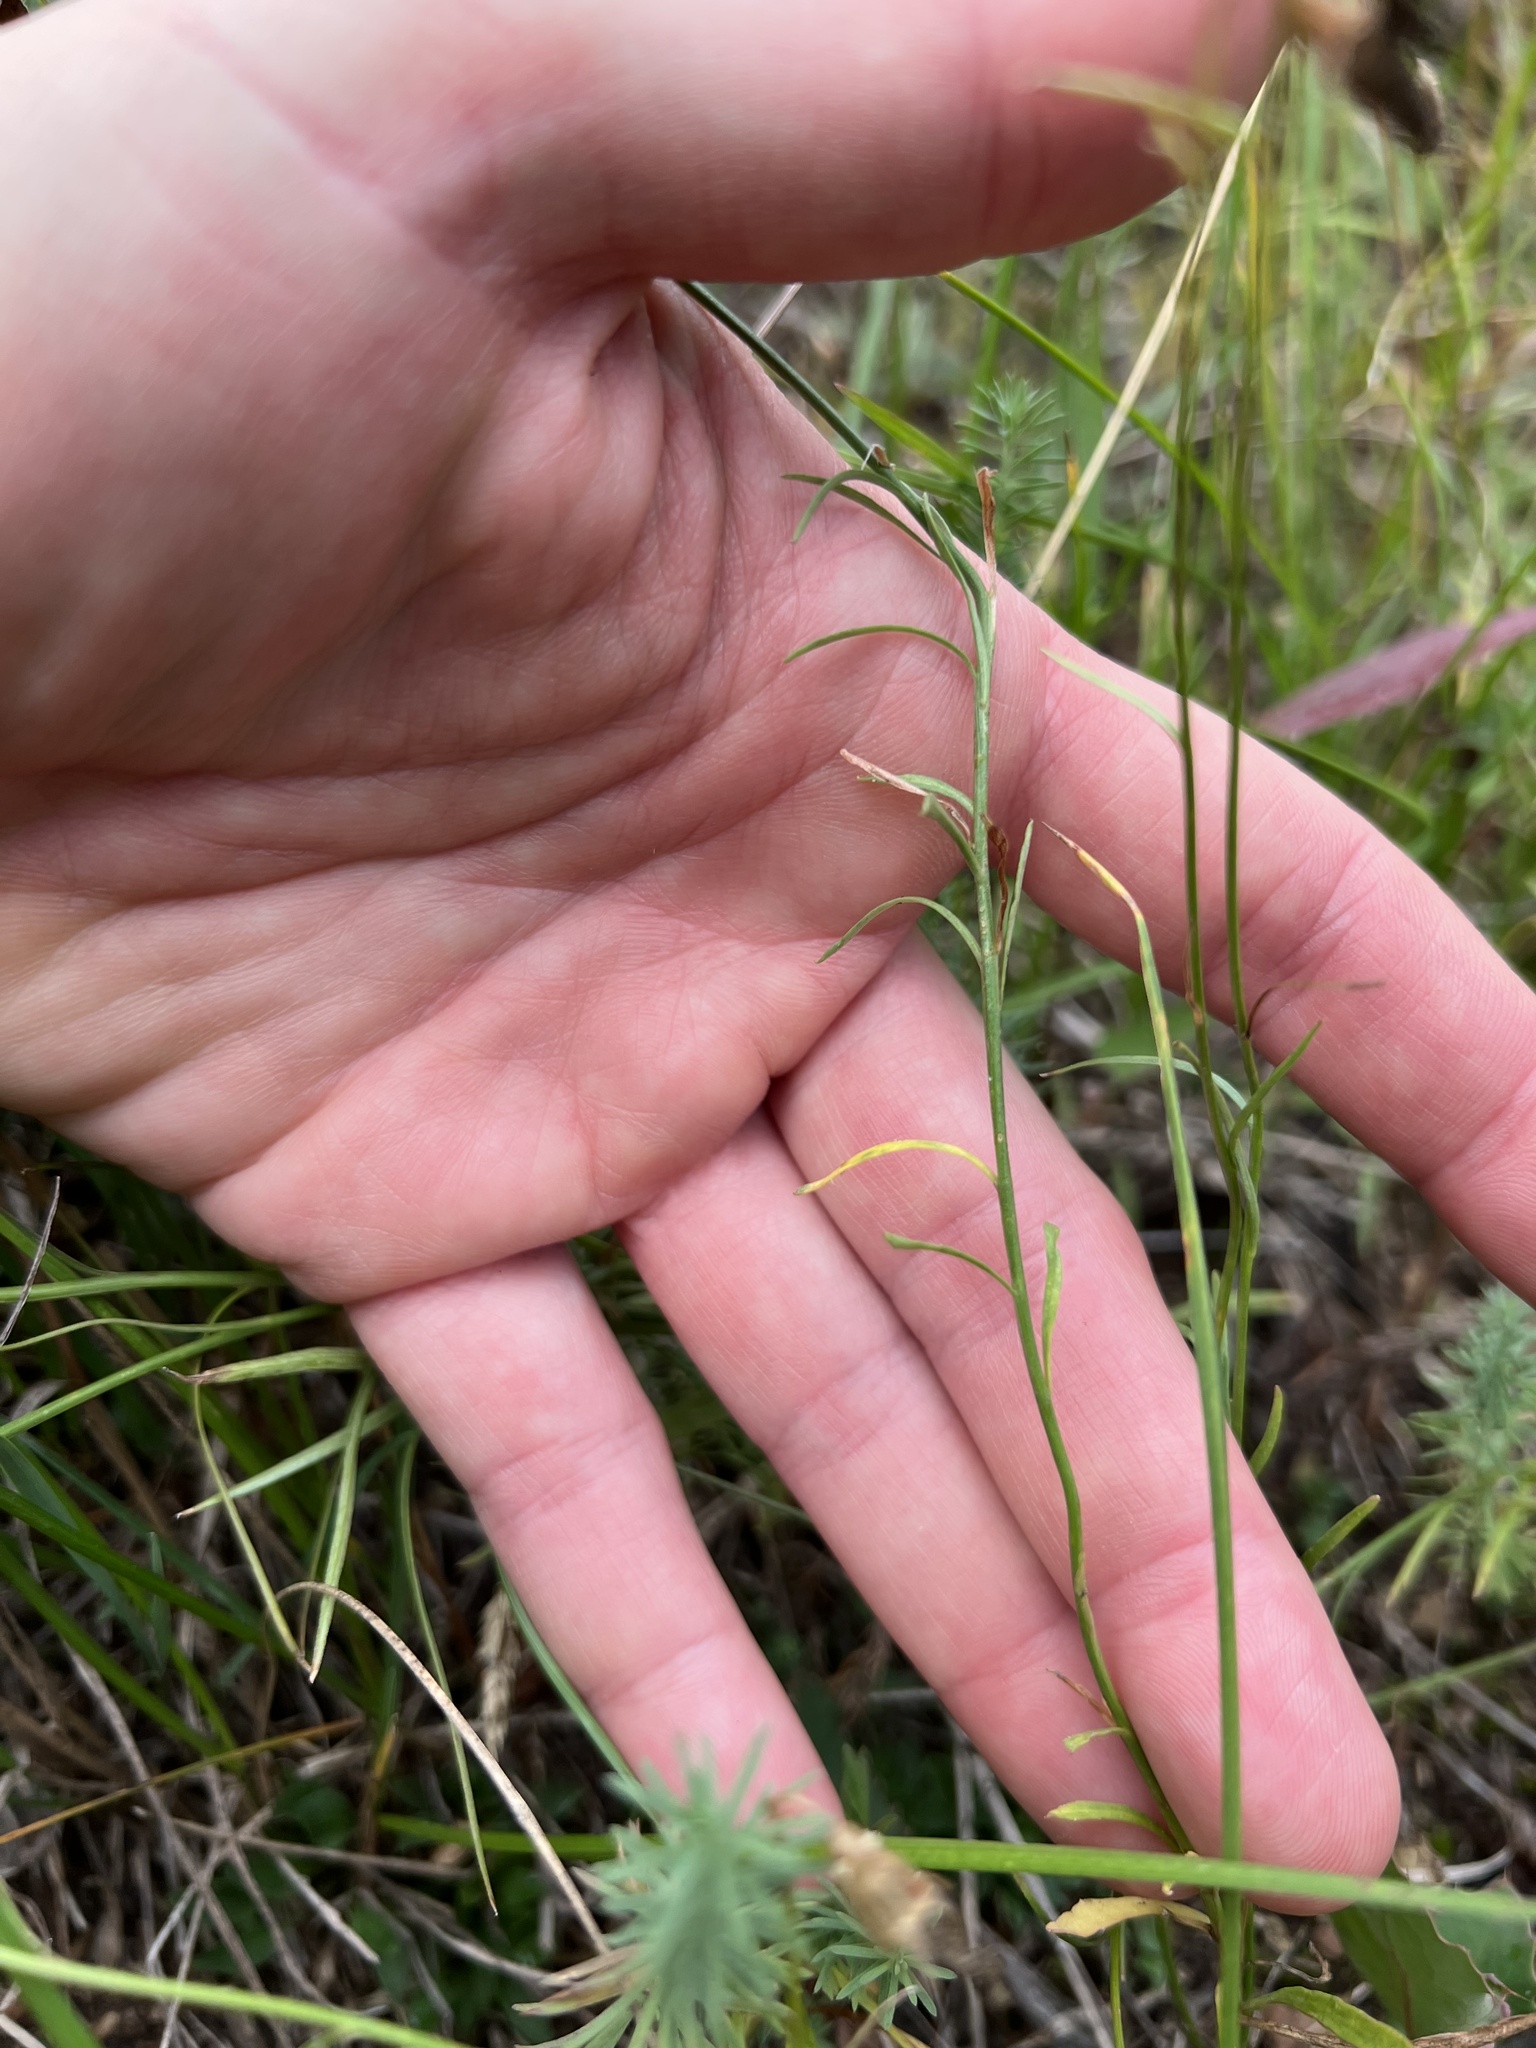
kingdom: Plantae
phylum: Tracheophyta
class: Magnoliopsida
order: Asterales
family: Campanulaceae
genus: Campanula
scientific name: Campanula
